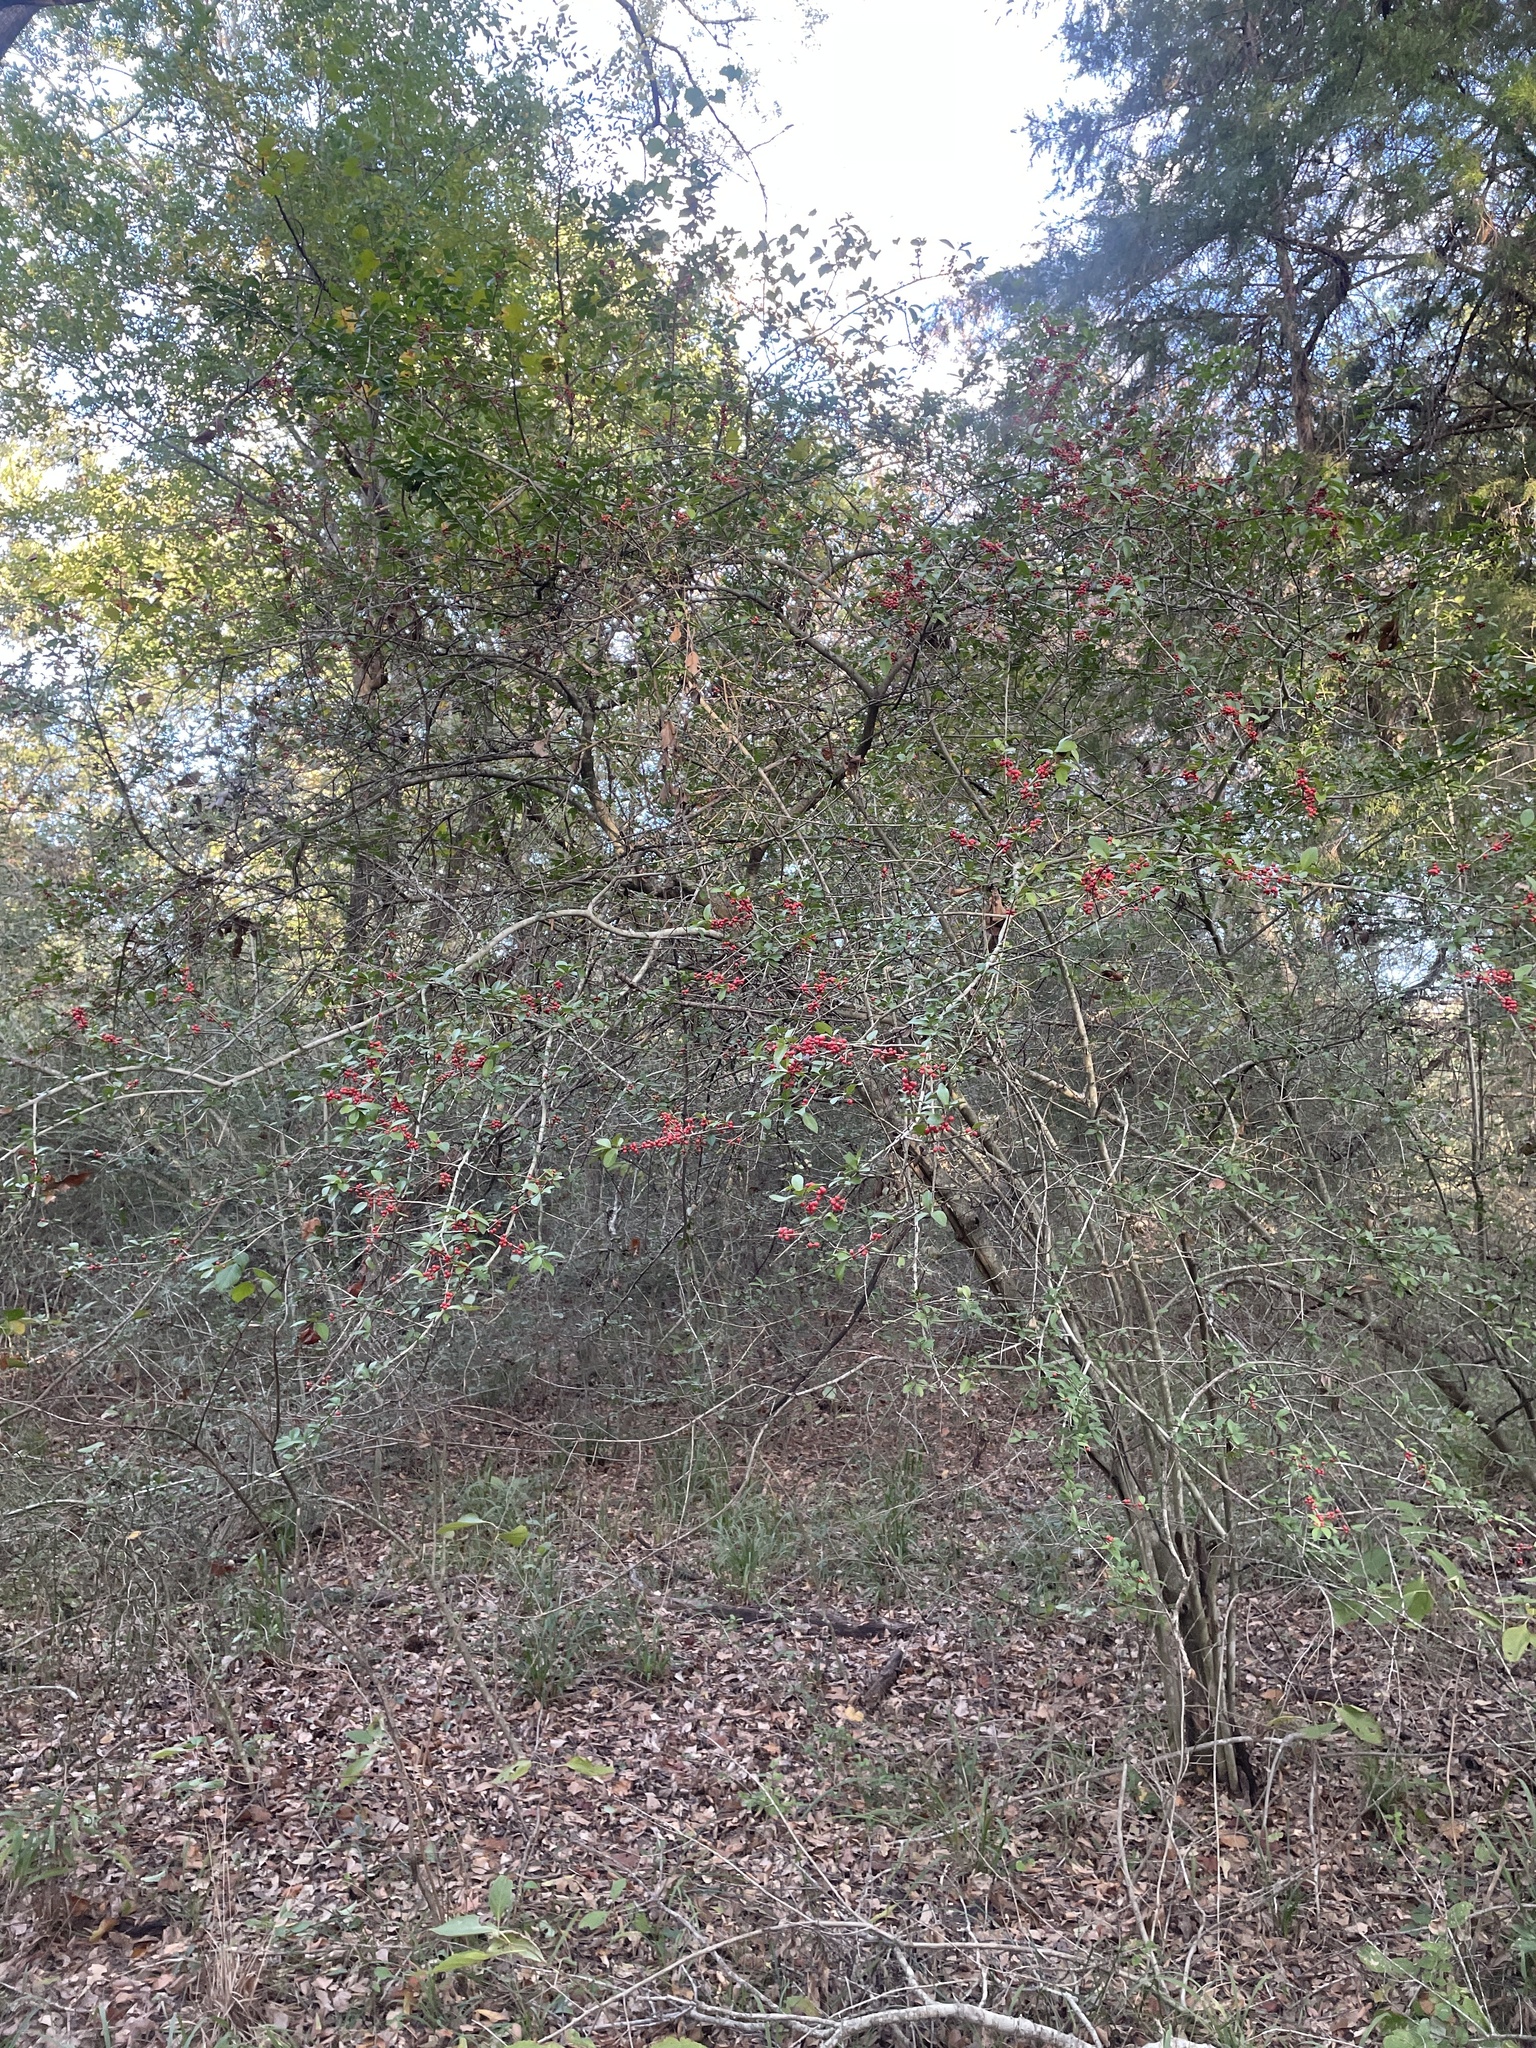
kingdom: Plantae
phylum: Tracheophyta
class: Magnoliopsida
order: Aquifoliales
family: Aquifoliaceae
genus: Ilex
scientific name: Ilex vomitoria
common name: Yaupon holly
